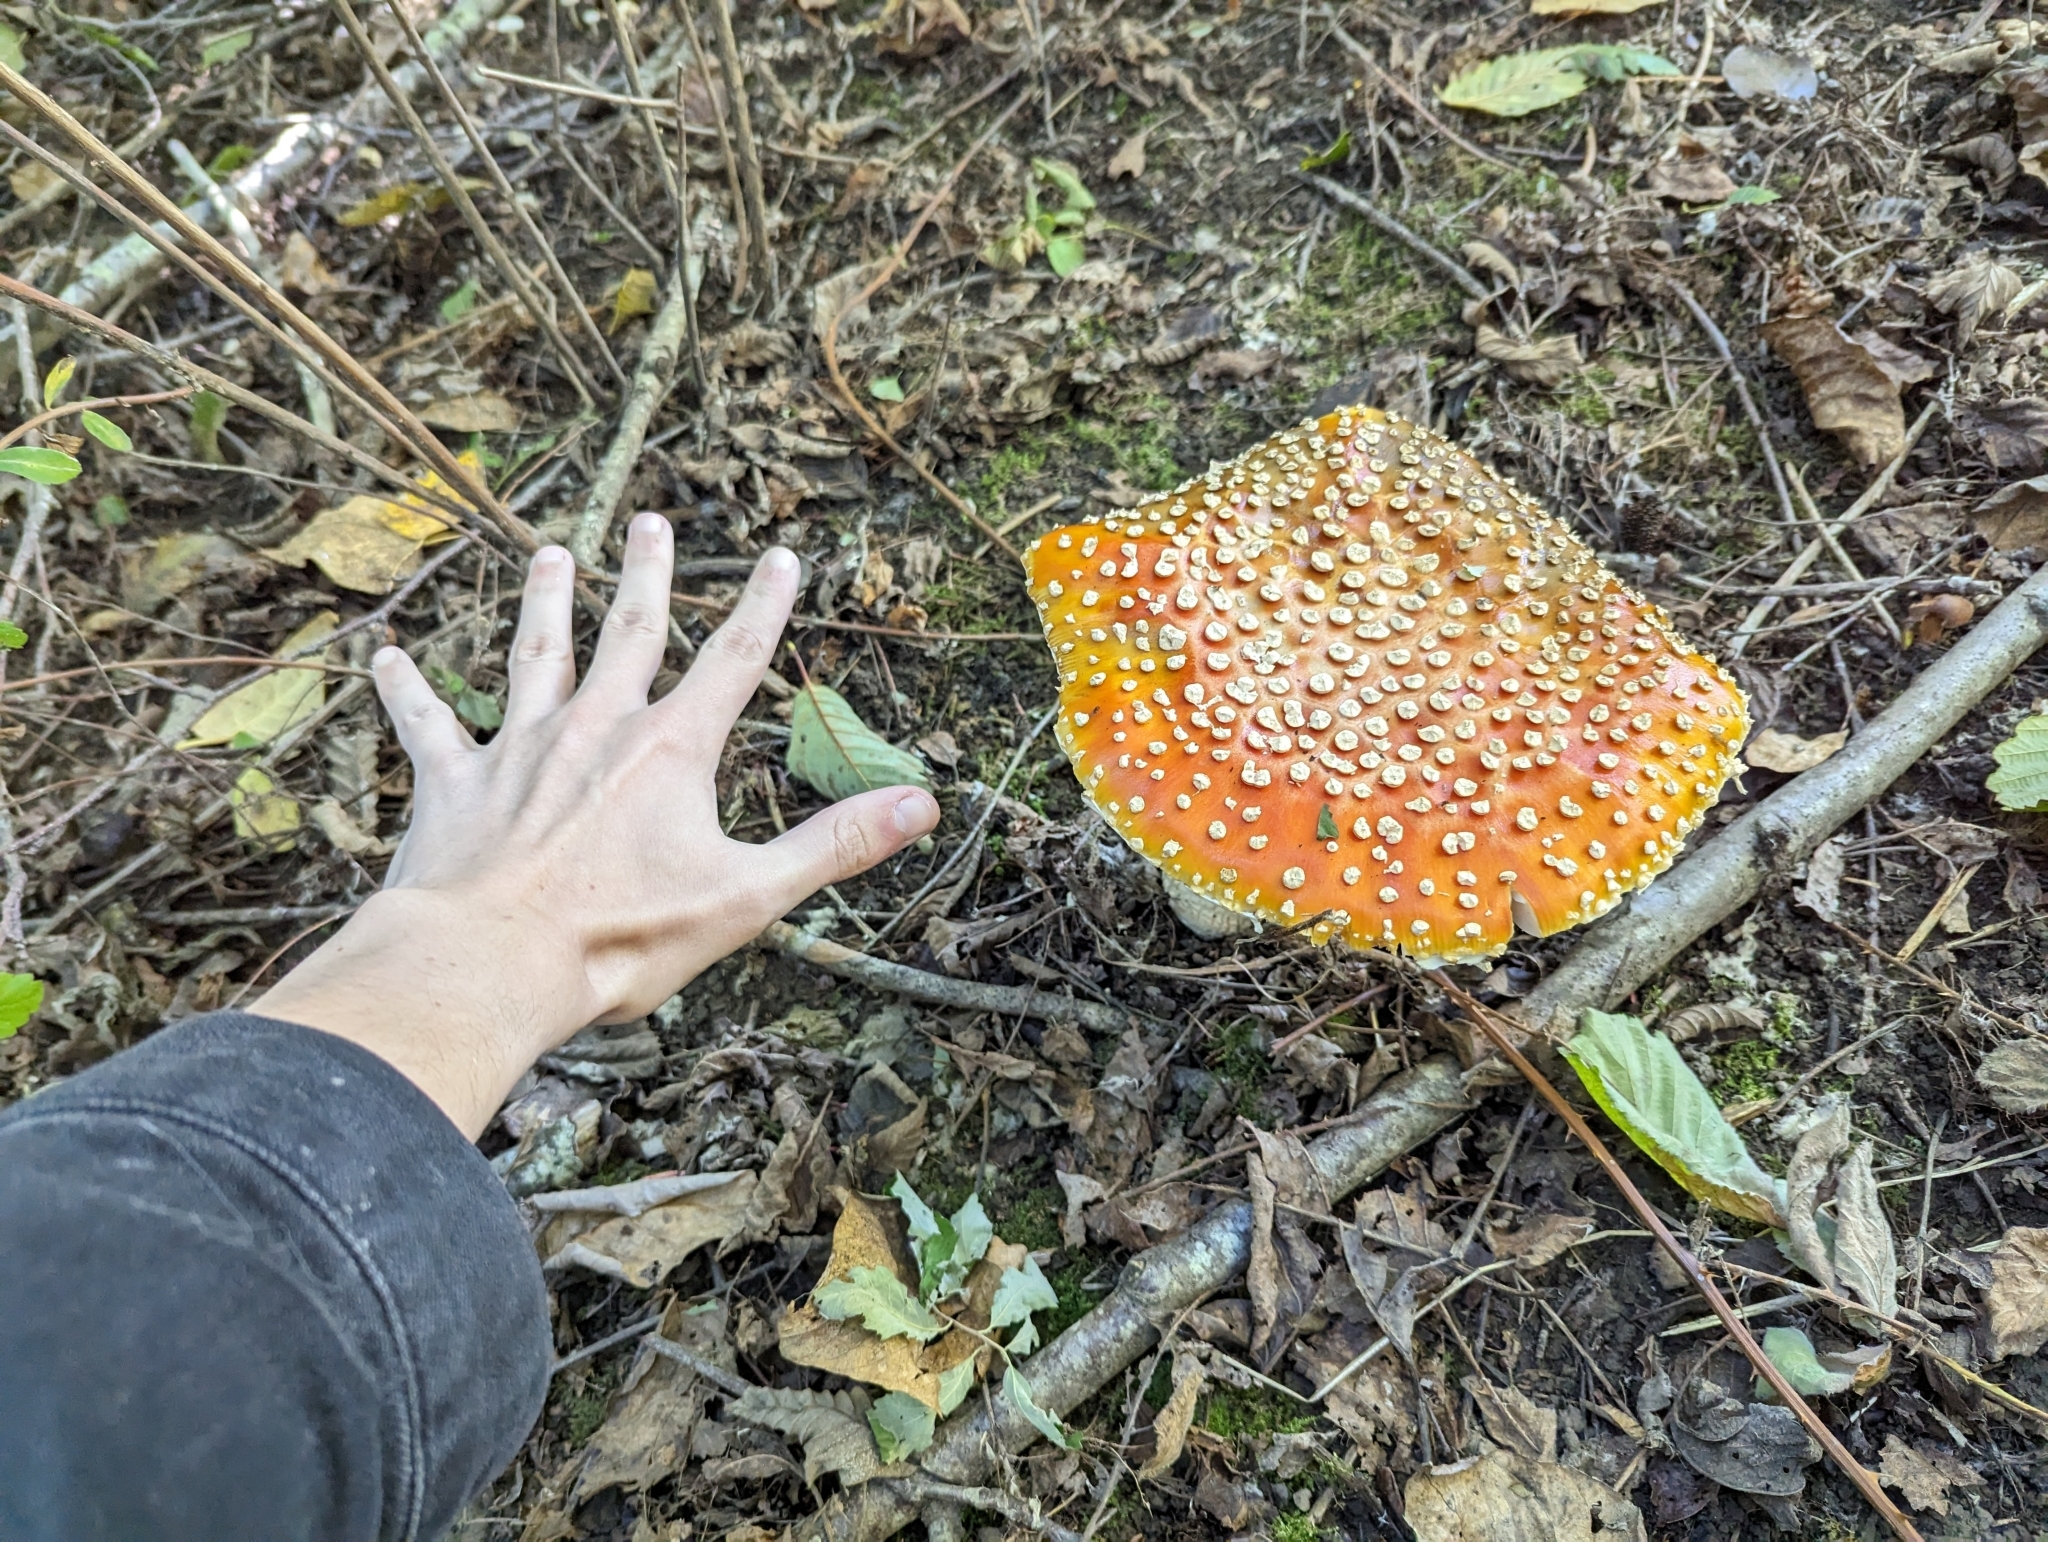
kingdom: Fungi
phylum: Basidiomycota
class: Agaricomycetes
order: Agaricales
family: Amanitaceae
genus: Amanita
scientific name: Amanita muscaria
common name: Fly agaric
